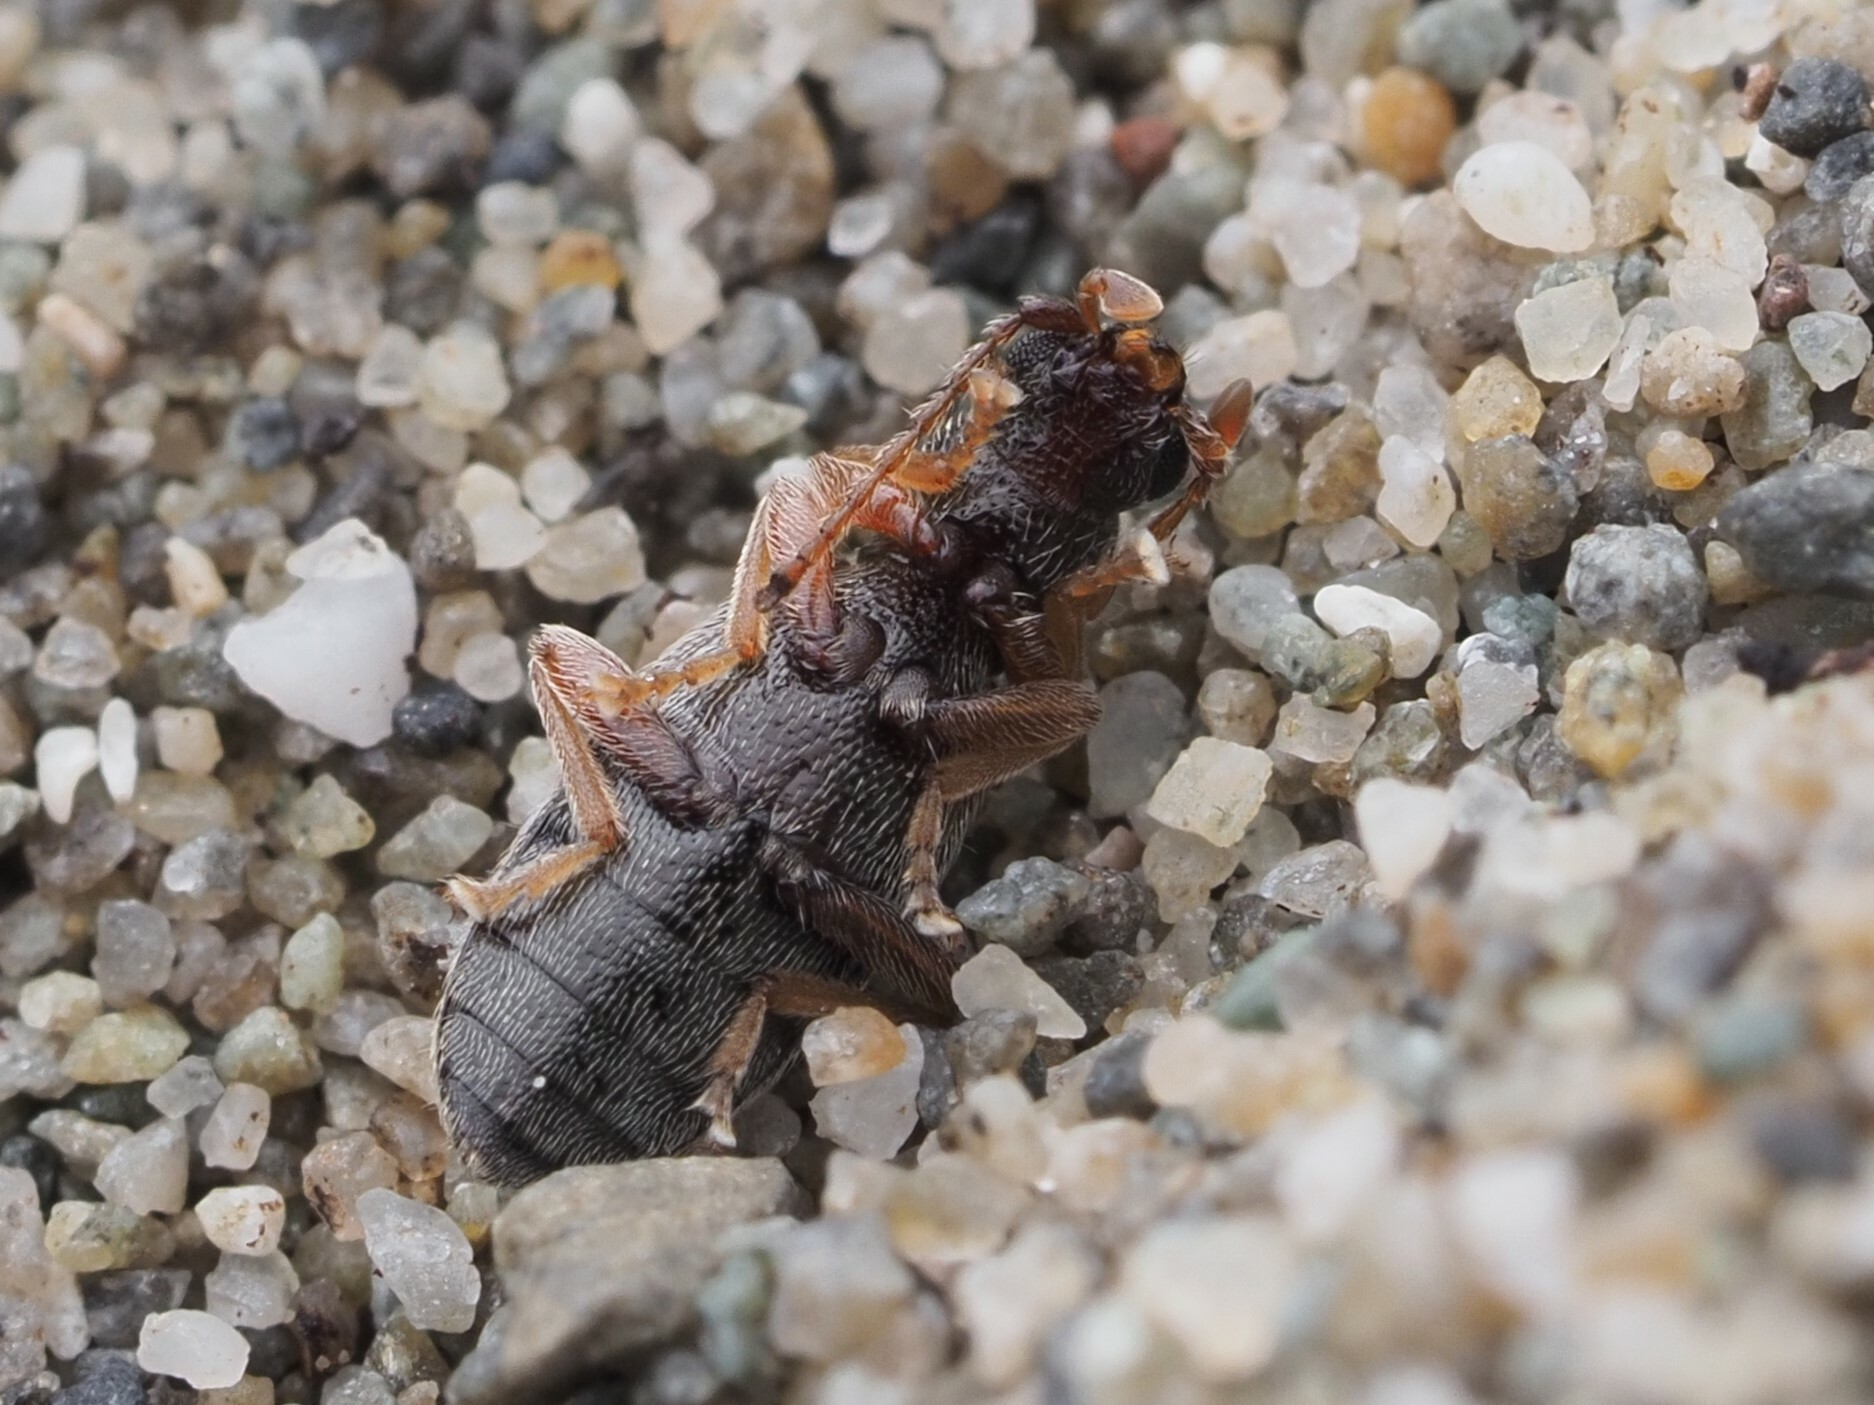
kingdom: Animalia
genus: Lagrioda
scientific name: Lagrioda brounii
